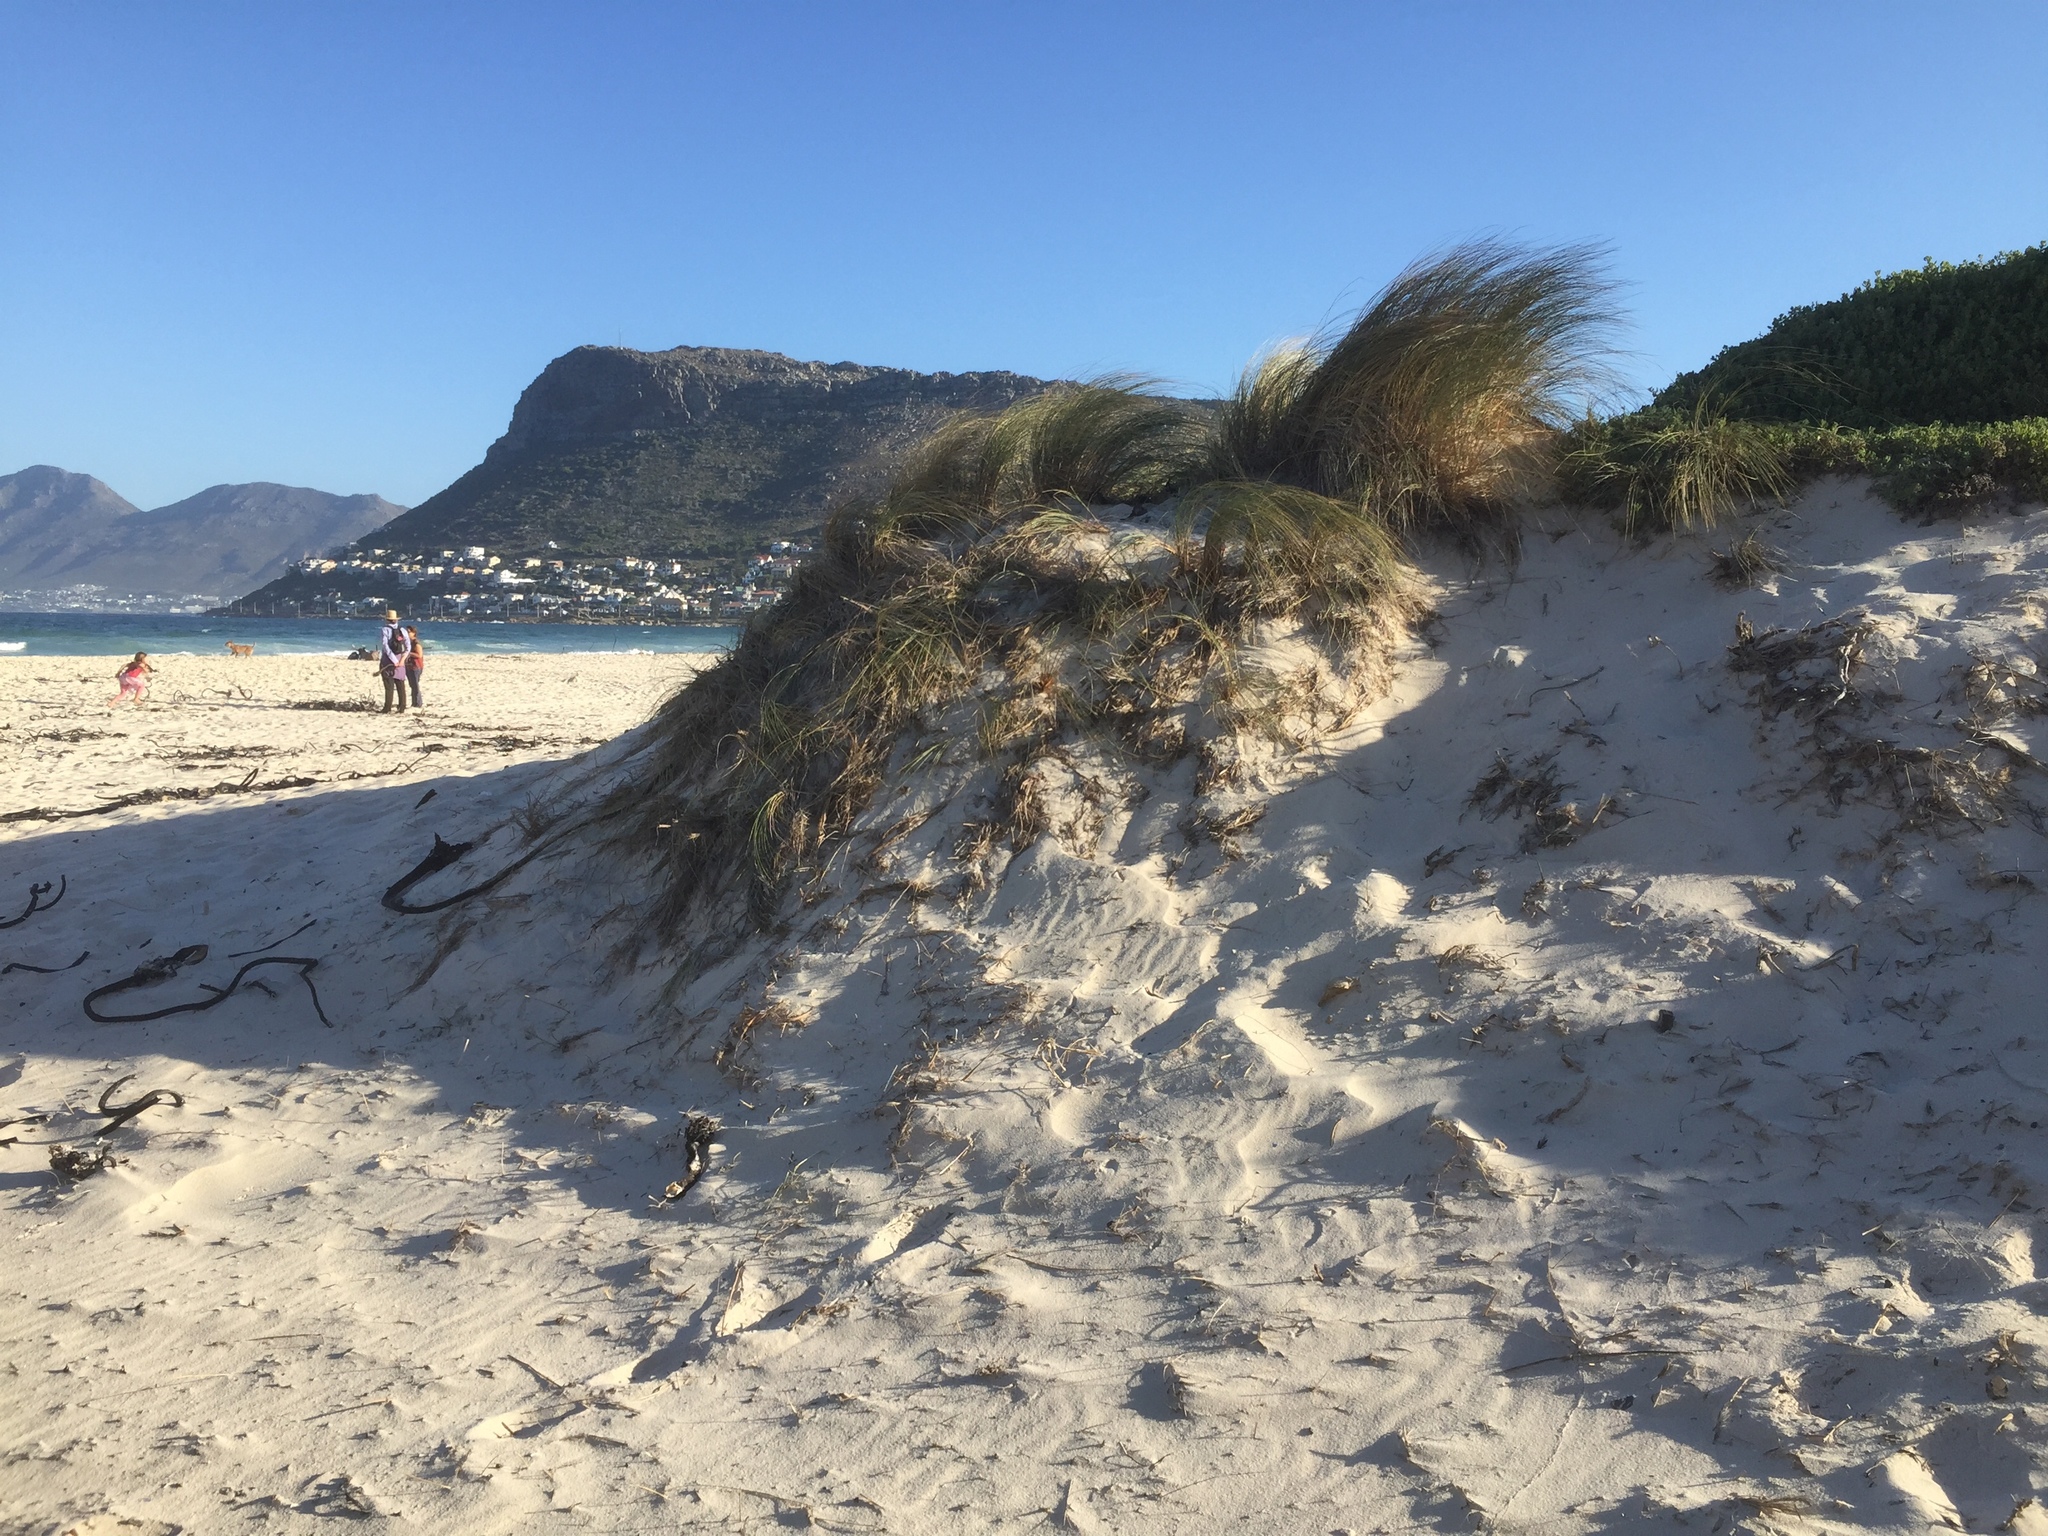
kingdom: Plantae
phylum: Tracheophyta
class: Liliopsida
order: Poales
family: Poaceae
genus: Calamagrostis
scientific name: Calamagrostis arenaria
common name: European beachgrass
